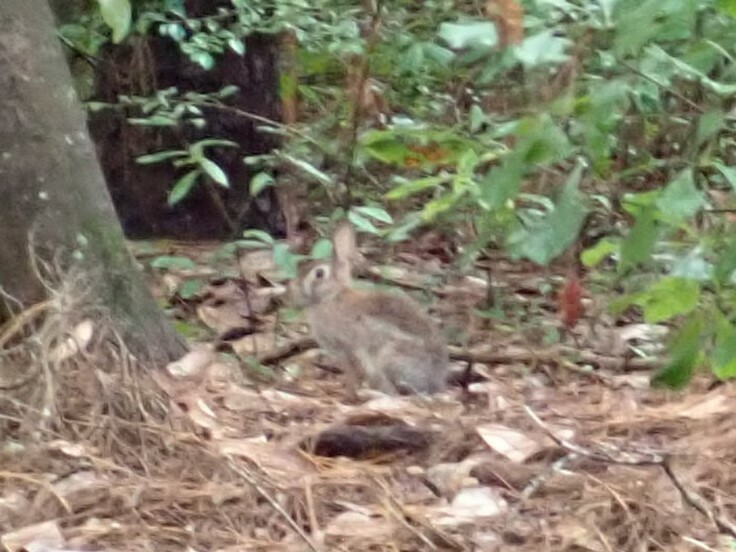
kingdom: Animalia
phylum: Chordata
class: Mammalia
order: Lagomorpha
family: Leporidae
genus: Sylvilagus
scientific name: Sylvilagus floridanus
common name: Eastern cottontail
